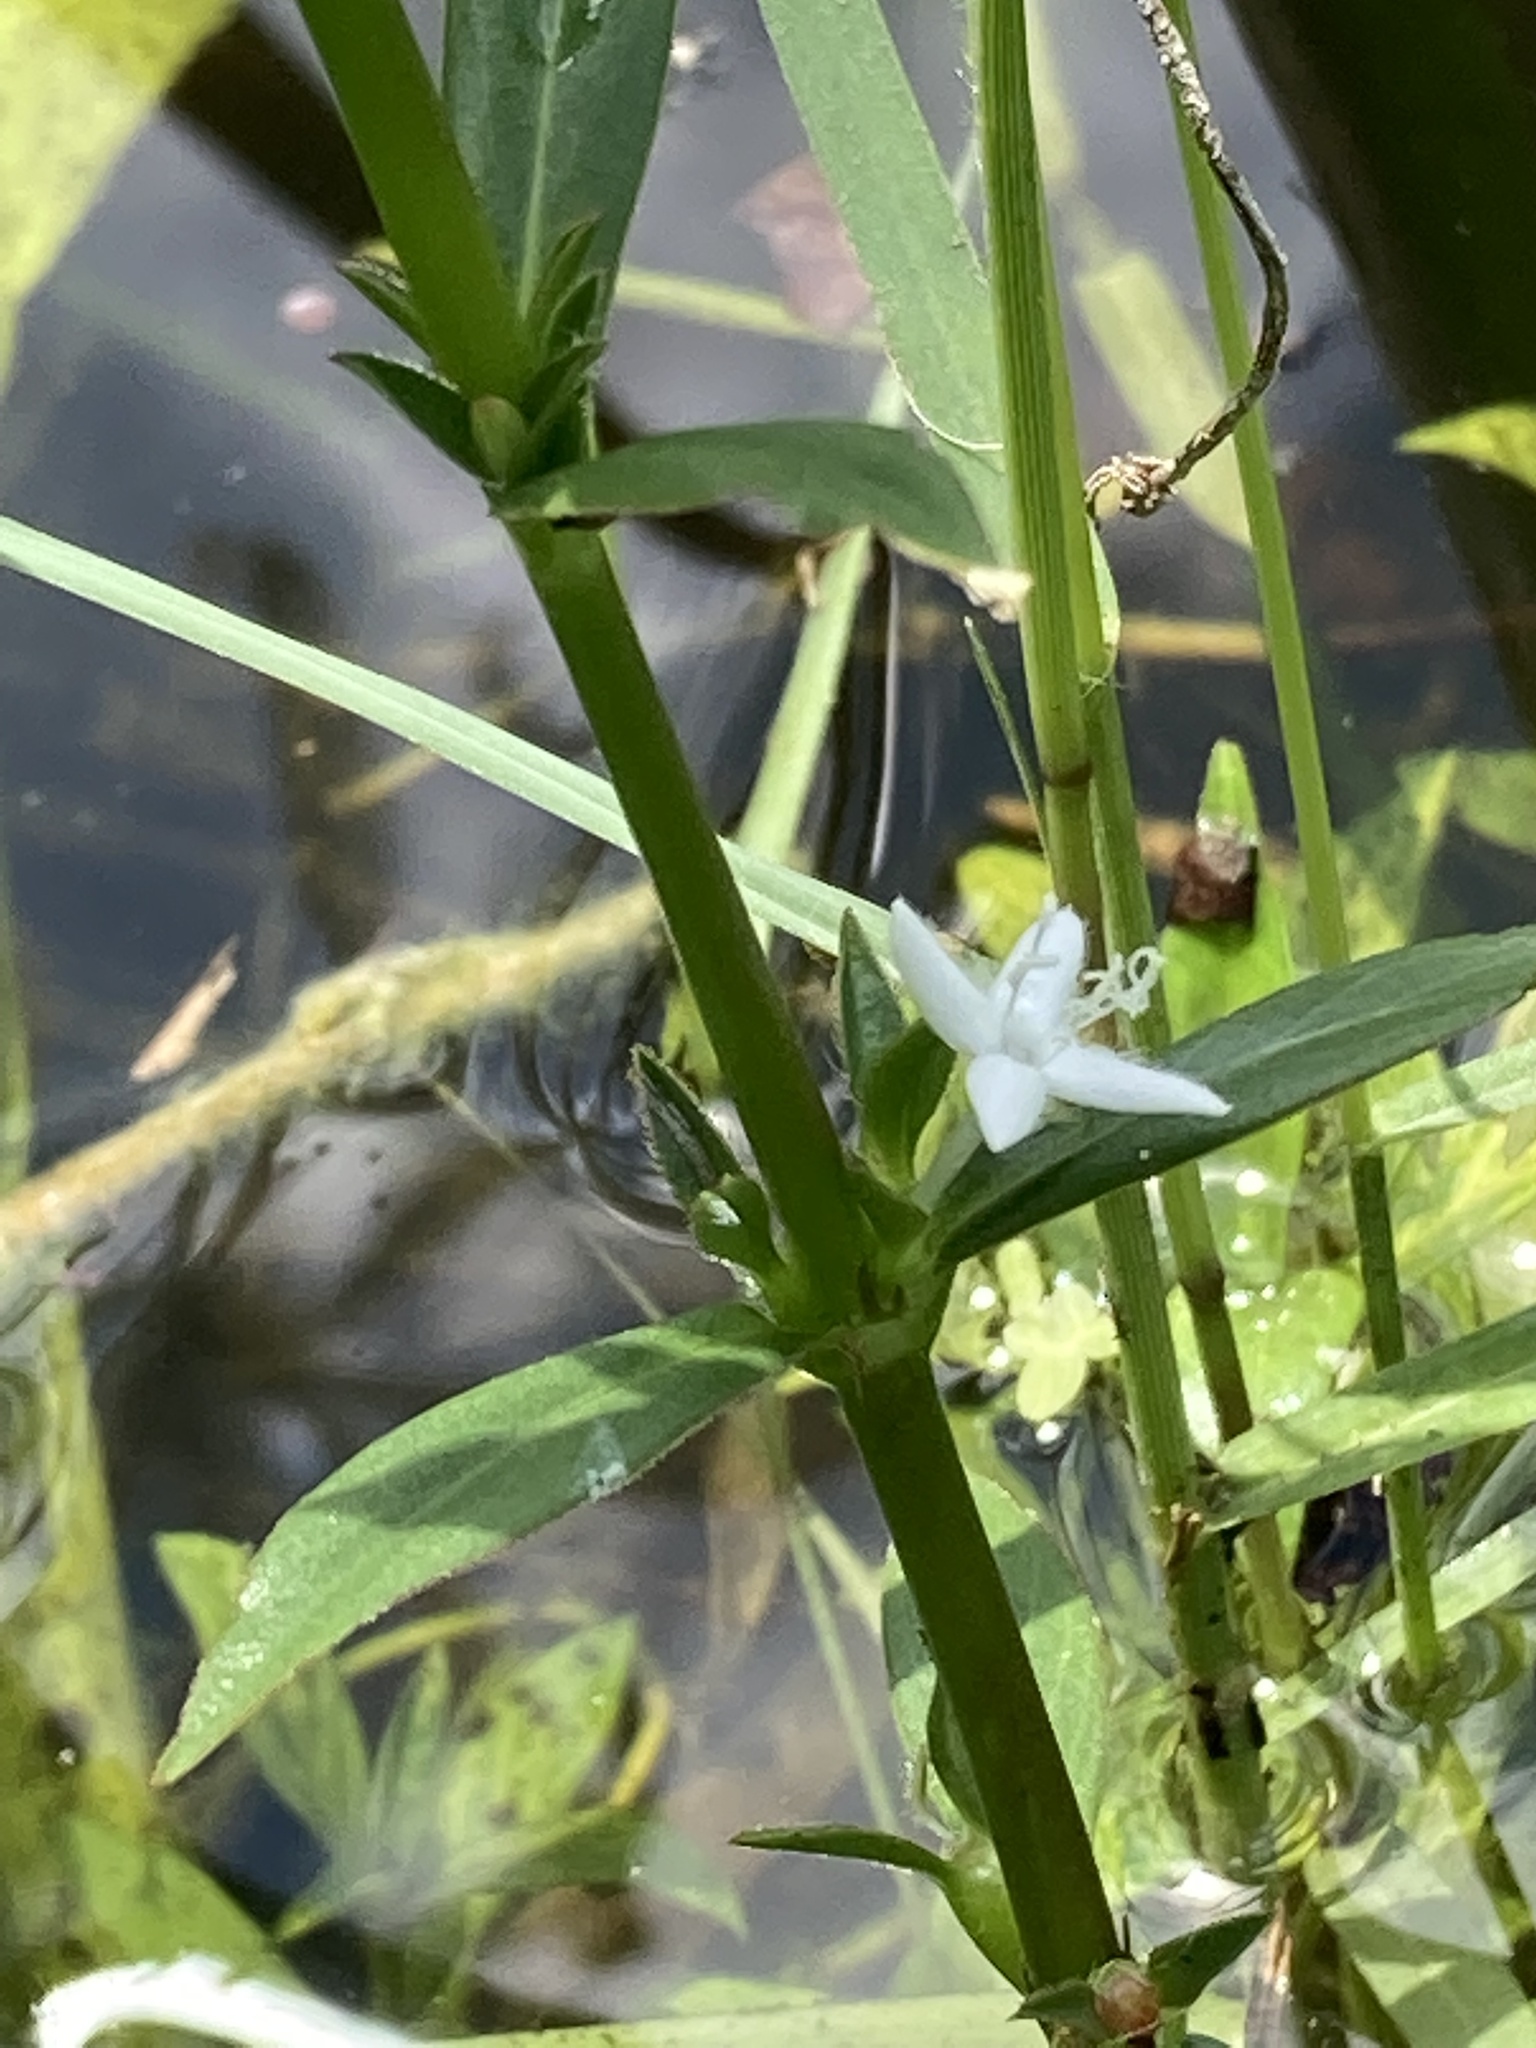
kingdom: Plantae
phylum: Tracheophyta
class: Magnoliopsida
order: Gentianales
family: Rubiaceae
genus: Diodia
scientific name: Diodia virginiana
